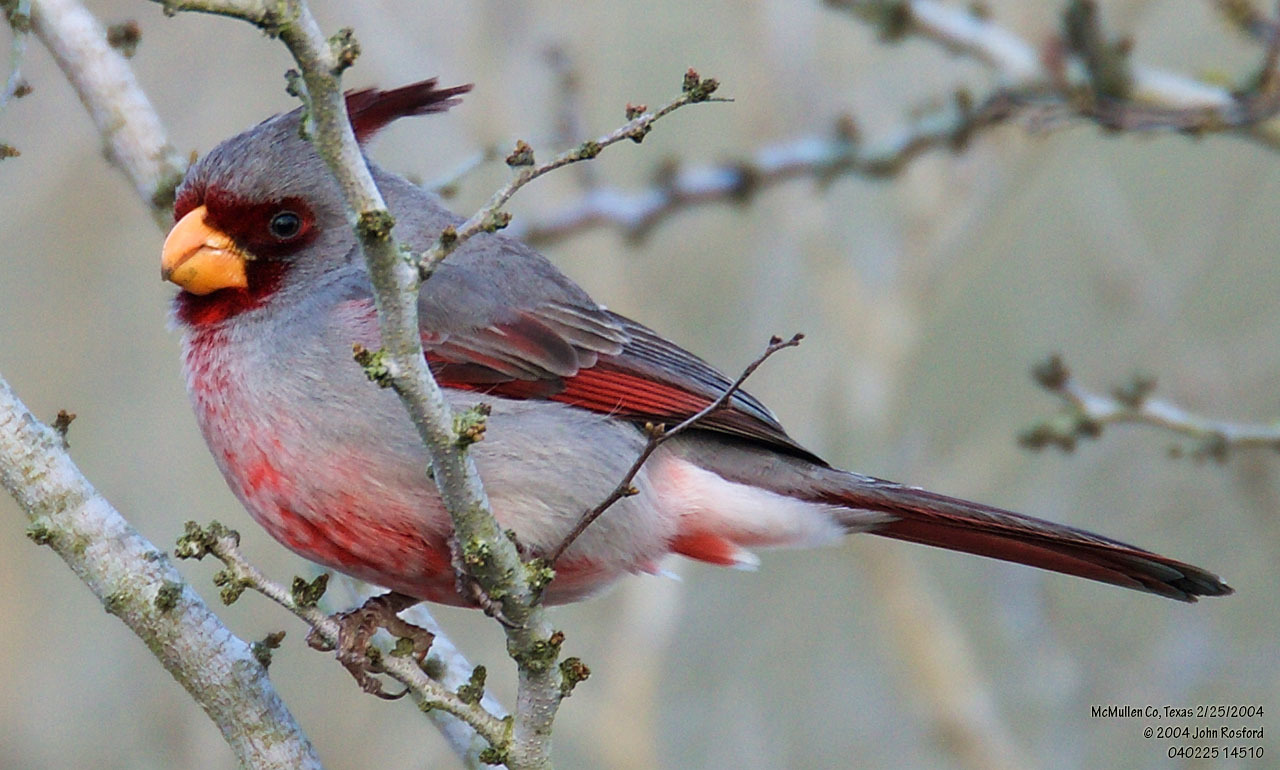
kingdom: Animalia
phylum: Chordata
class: Aves
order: Passeriformes
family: Cardinalidae
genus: Cardinalis
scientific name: Cardinalis sinuatus
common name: Pyrrhuloxia
